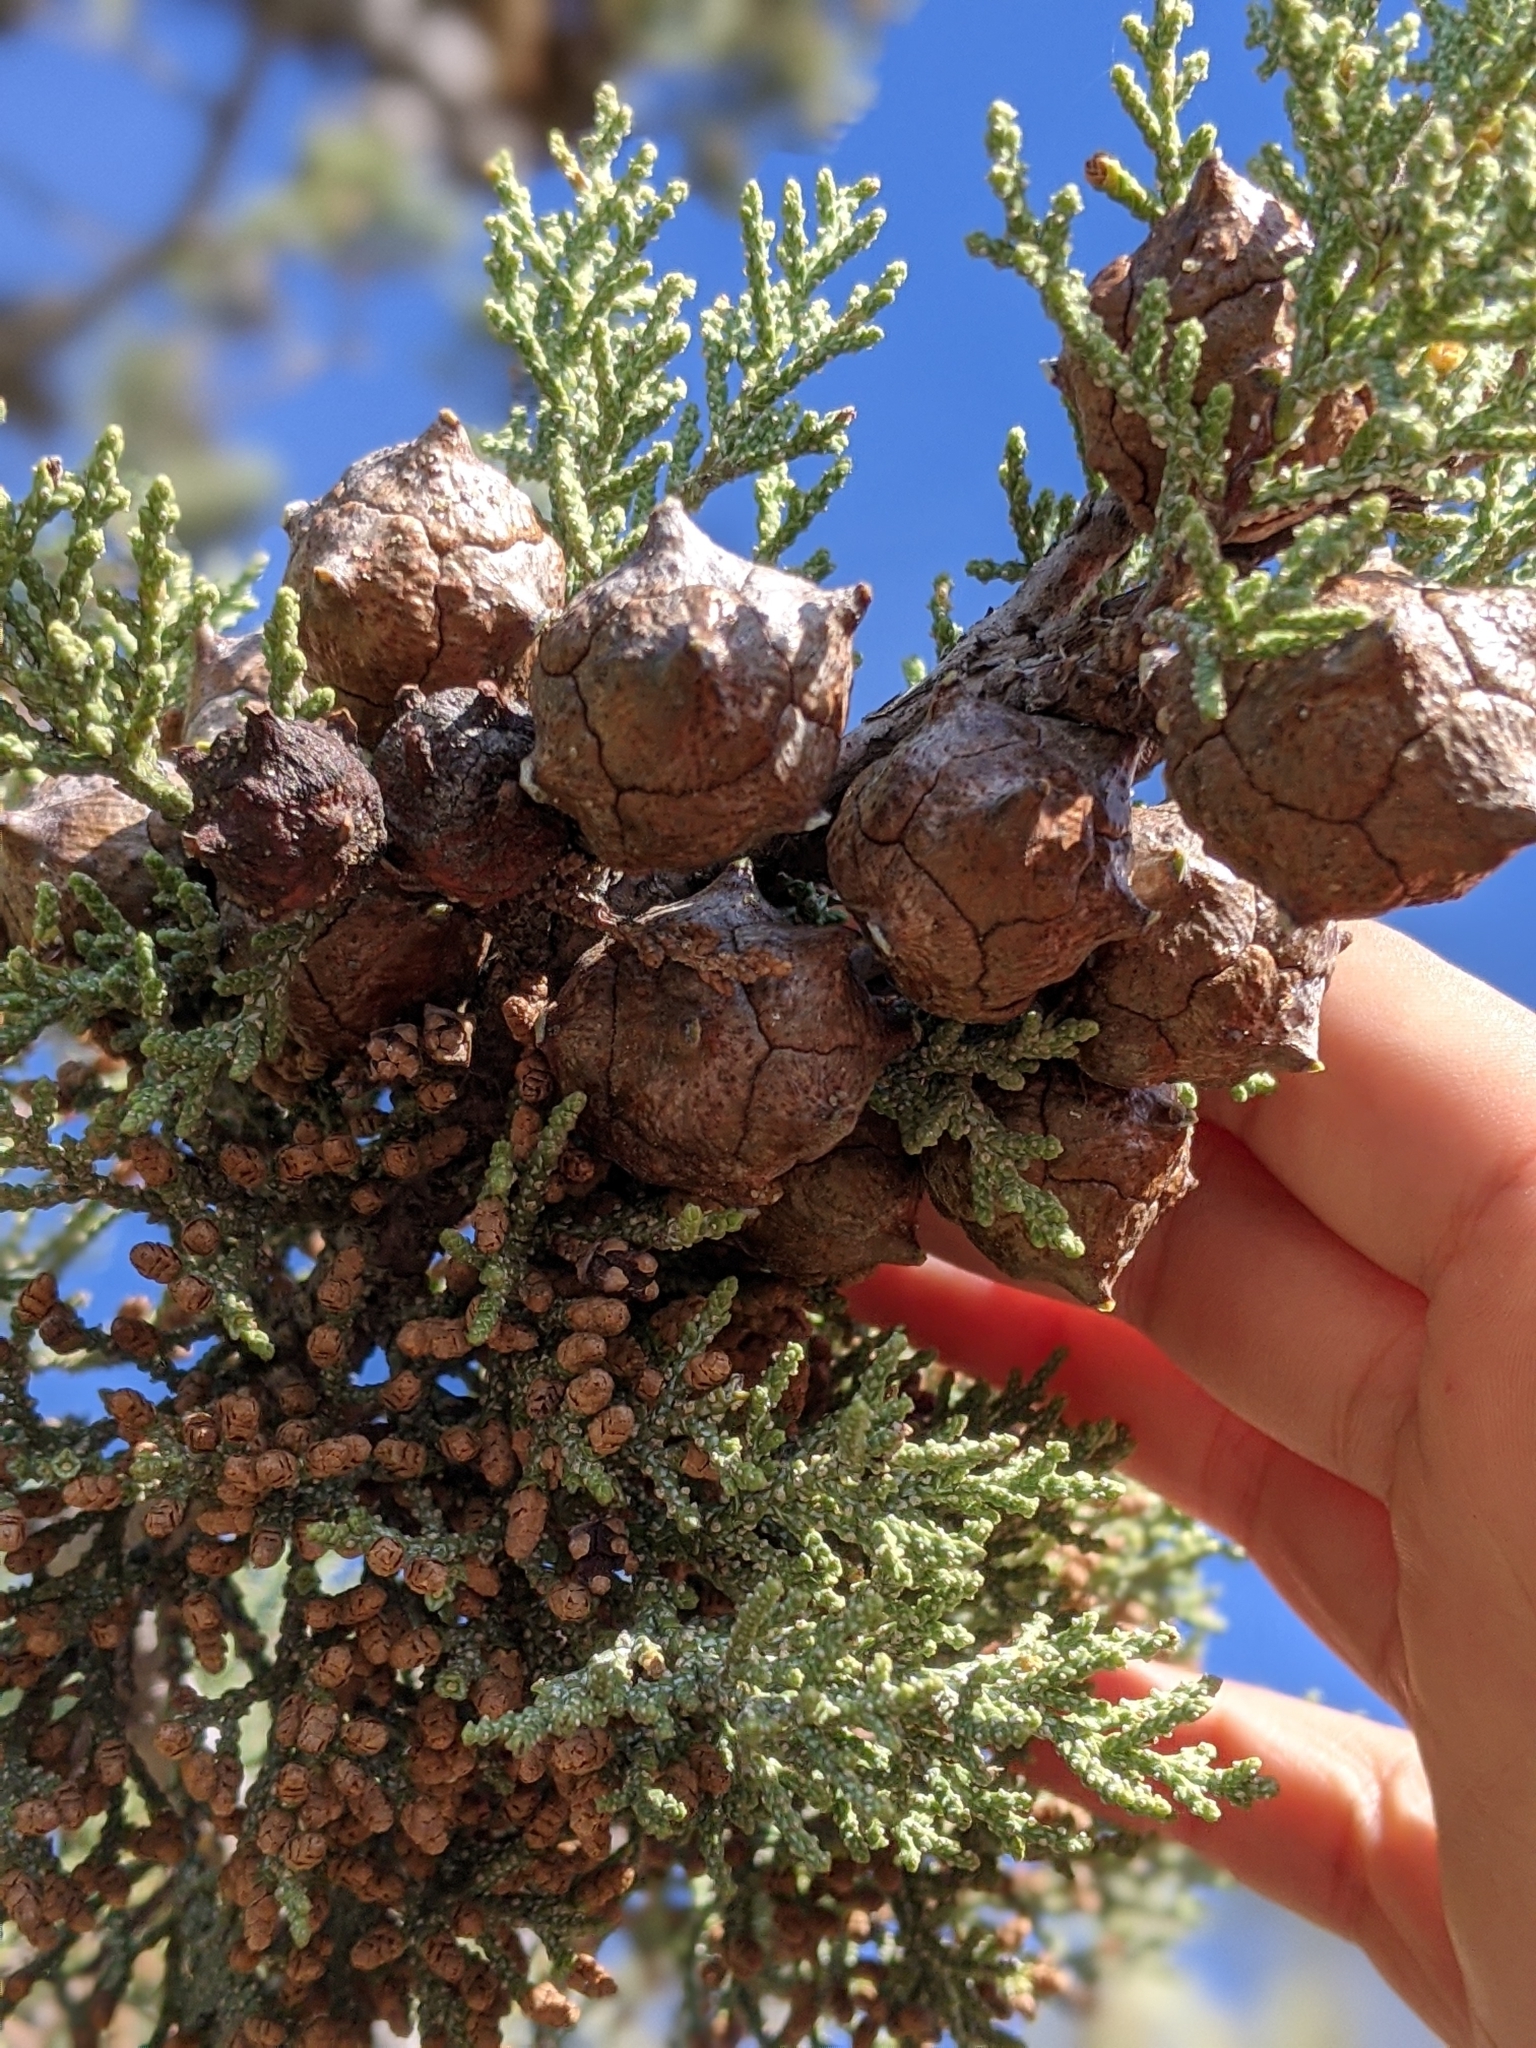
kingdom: Plantae
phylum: Tracheophyta
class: Pinopsida
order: Pinales
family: Cupressaceae
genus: Cupressus
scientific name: Cupressus macnabiana bis
